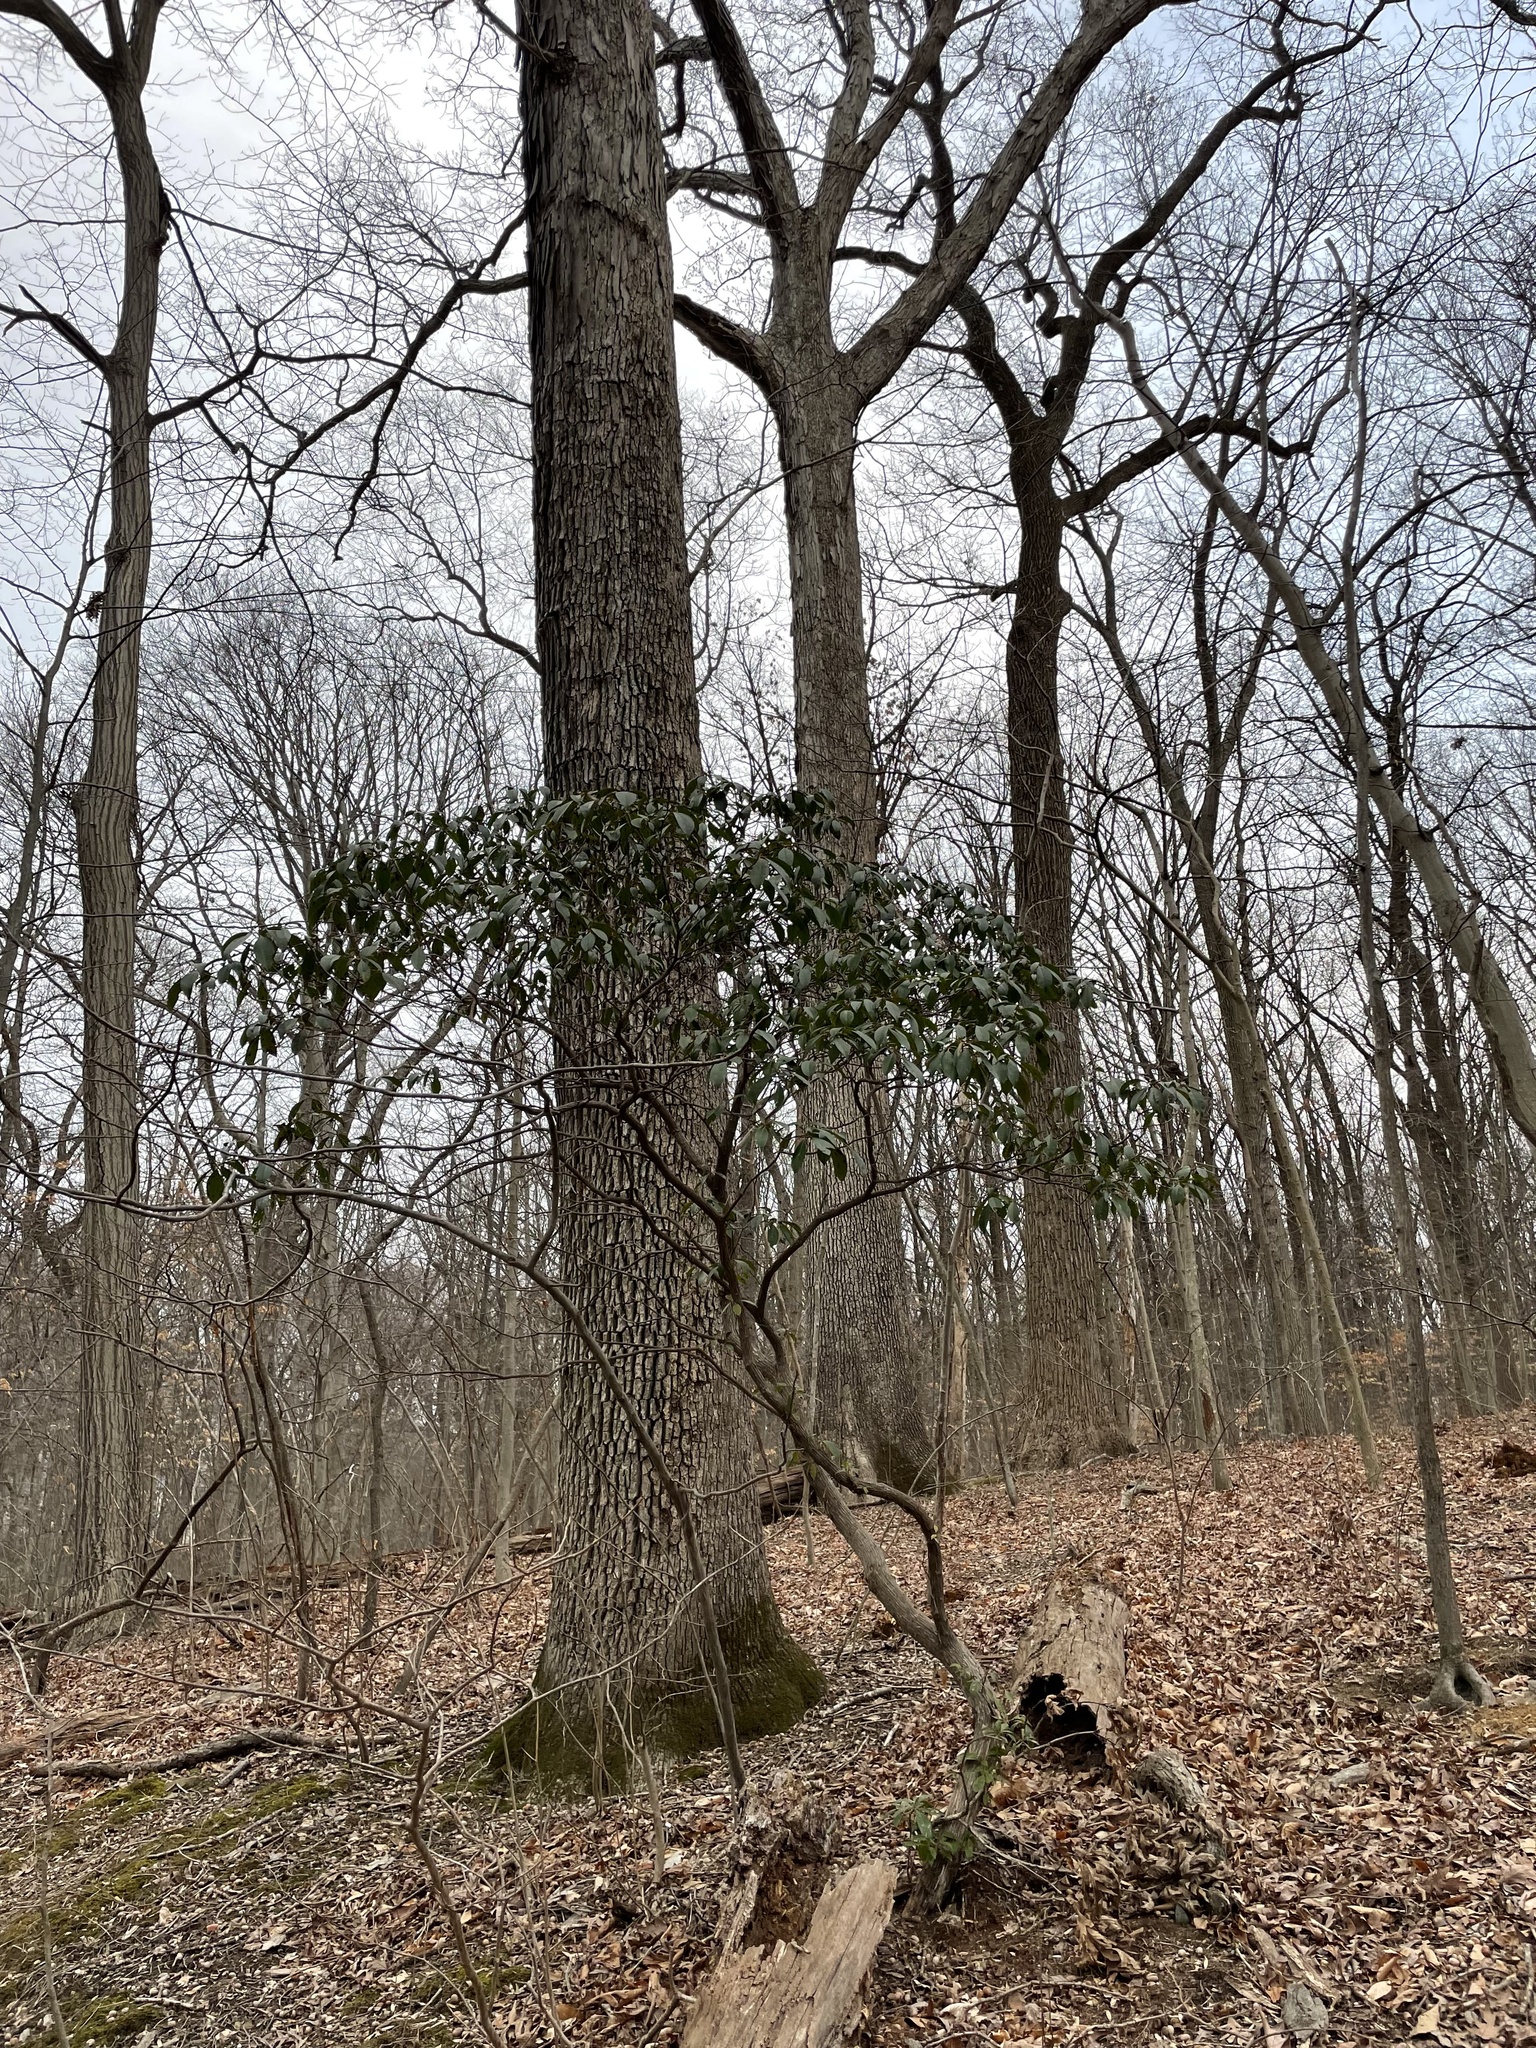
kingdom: Plantae
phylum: Tracheophyta
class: Magnoliopsida
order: Ericales
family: Ericaceae
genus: Kalmia
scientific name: Kalmia latifolia
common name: Mountain-laurel
